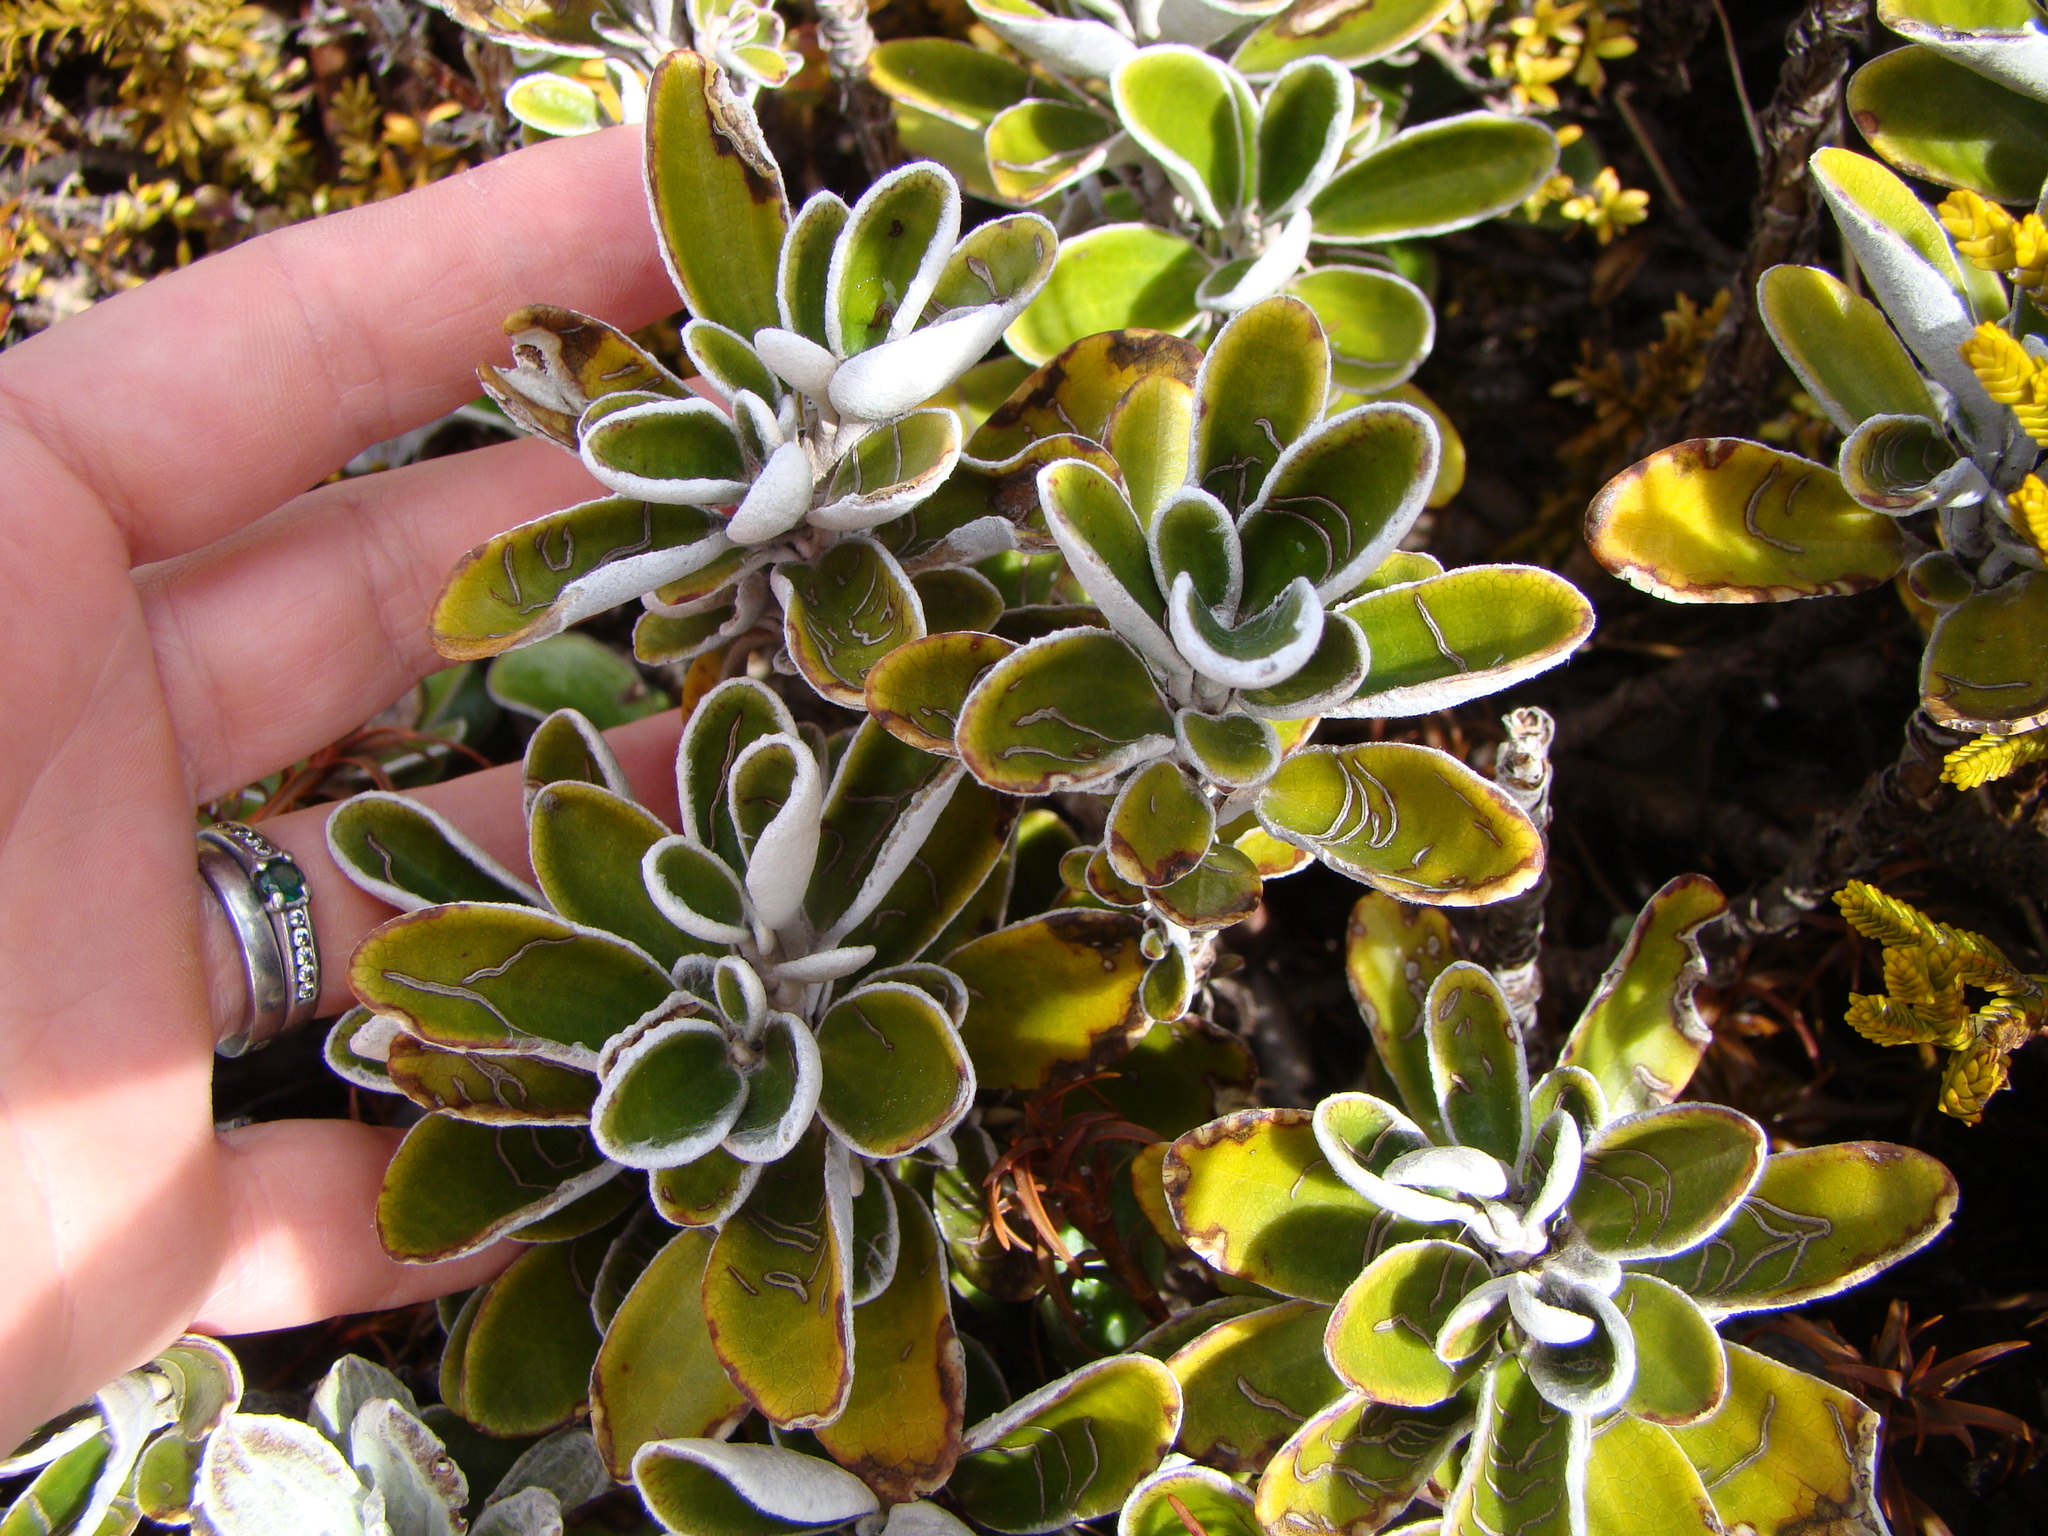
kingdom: Plantae
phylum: Tracheophyta
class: Magnoliopsida
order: Asterales
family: Asteraceae
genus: Brachyglottis
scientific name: Brachyglottis bidwillii
